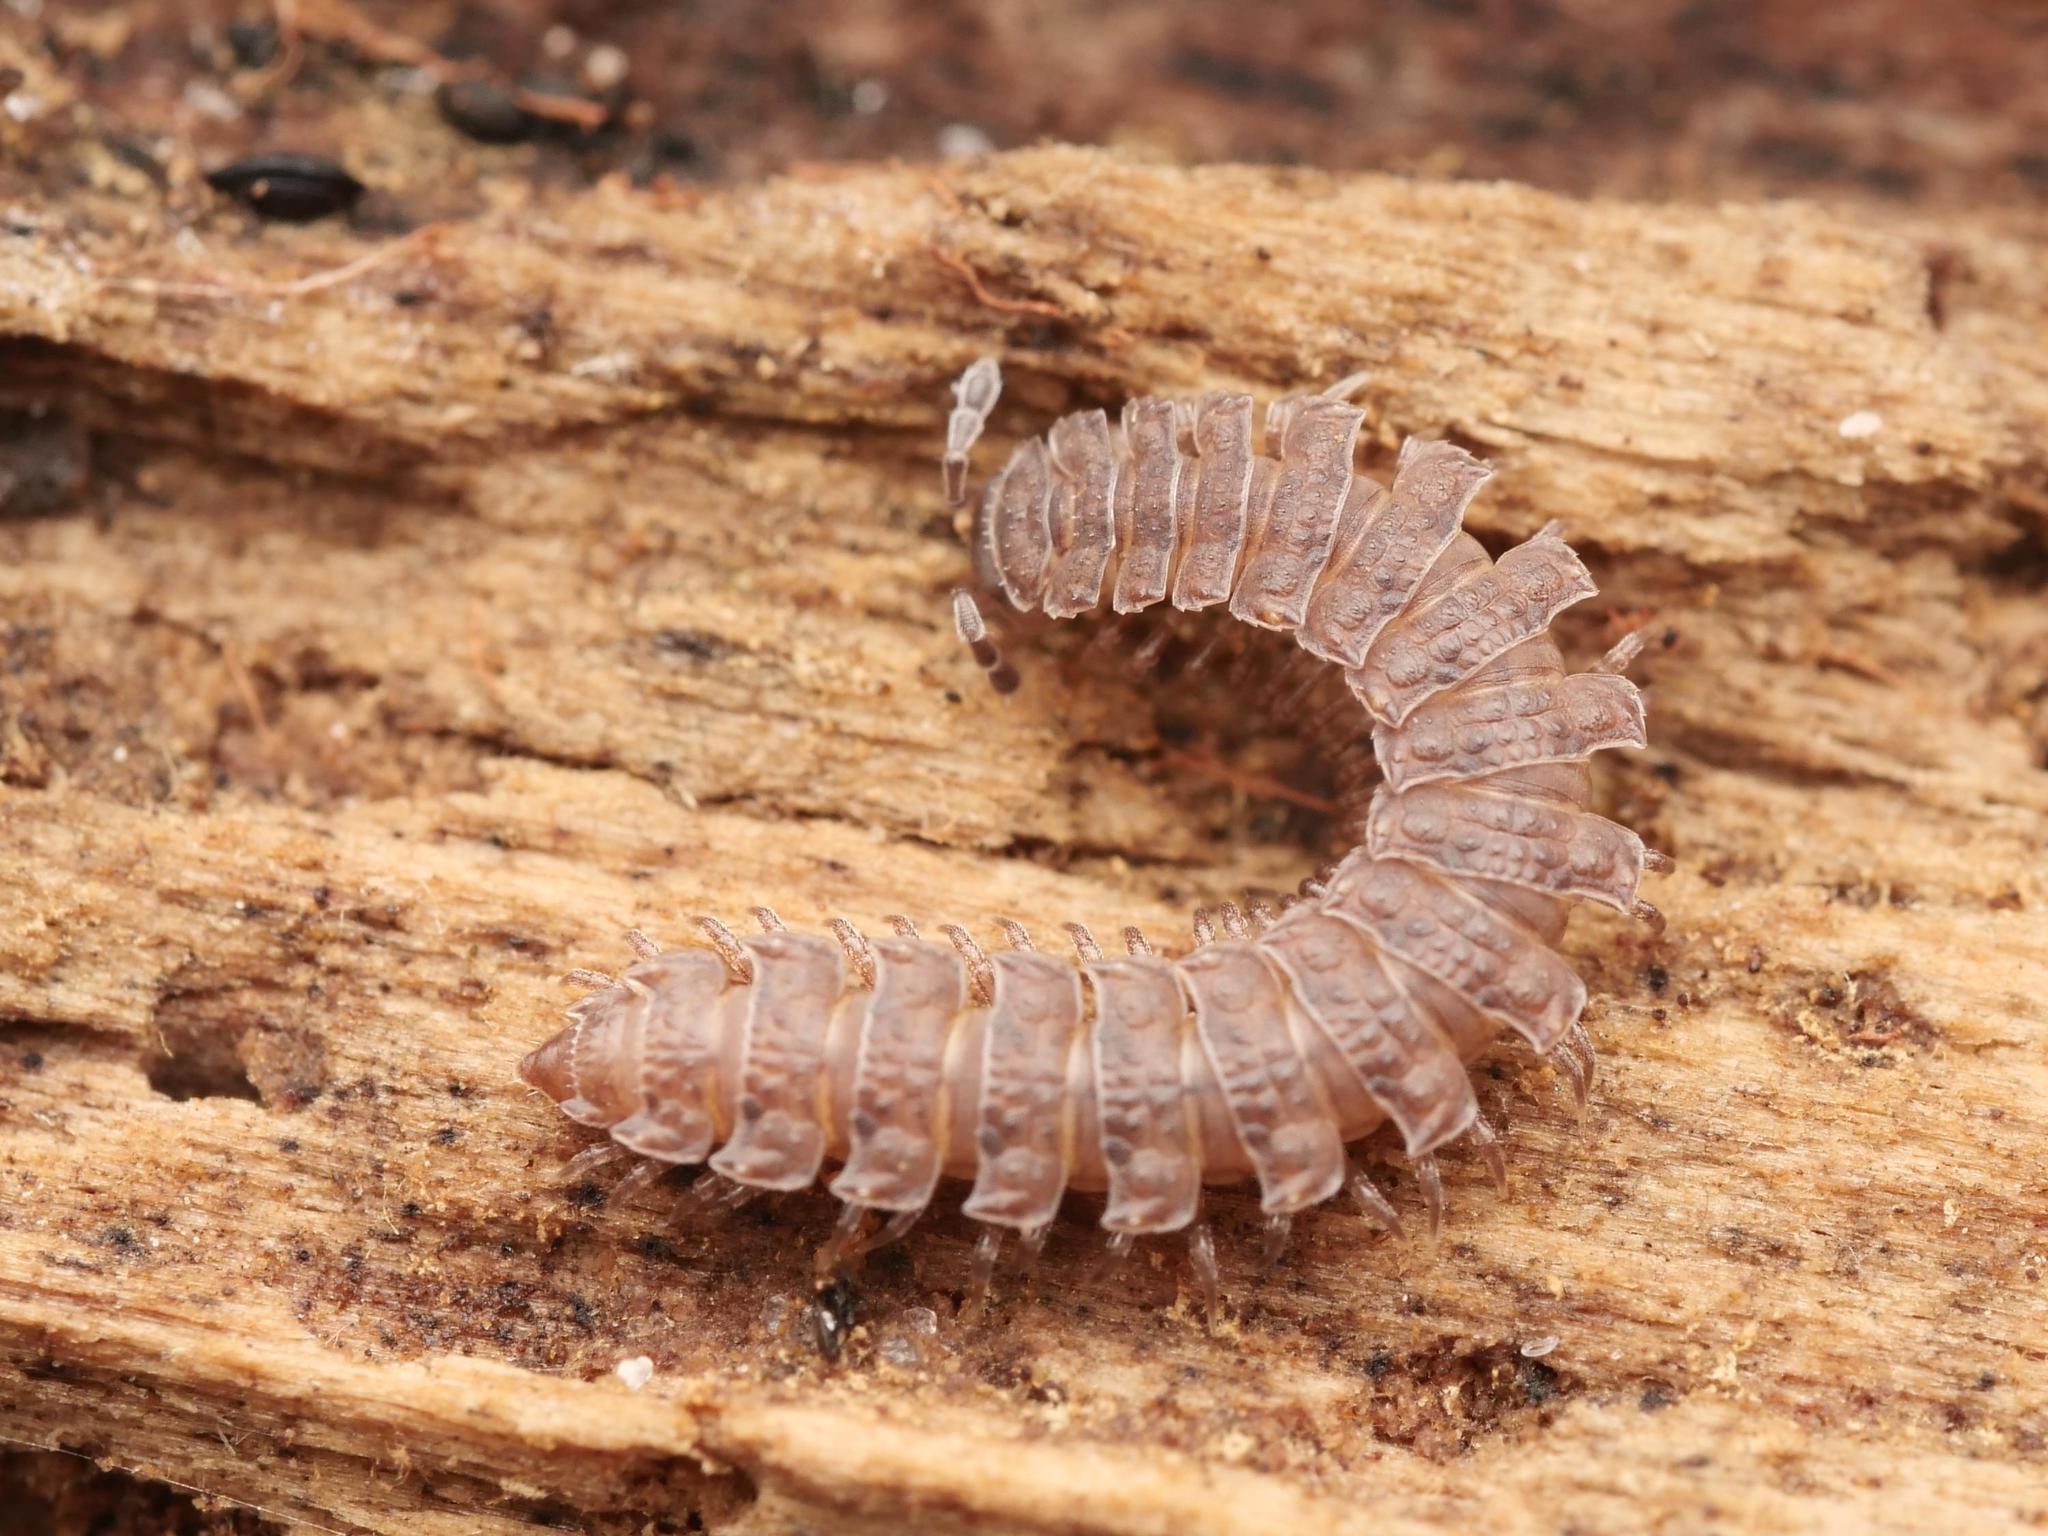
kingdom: Animalia
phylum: Arthropoda
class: Diplopoda
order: Polydesmida
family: Polydesmidae
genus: Polydesmus
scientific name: Polydesmus angustus
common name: Flat millipede
